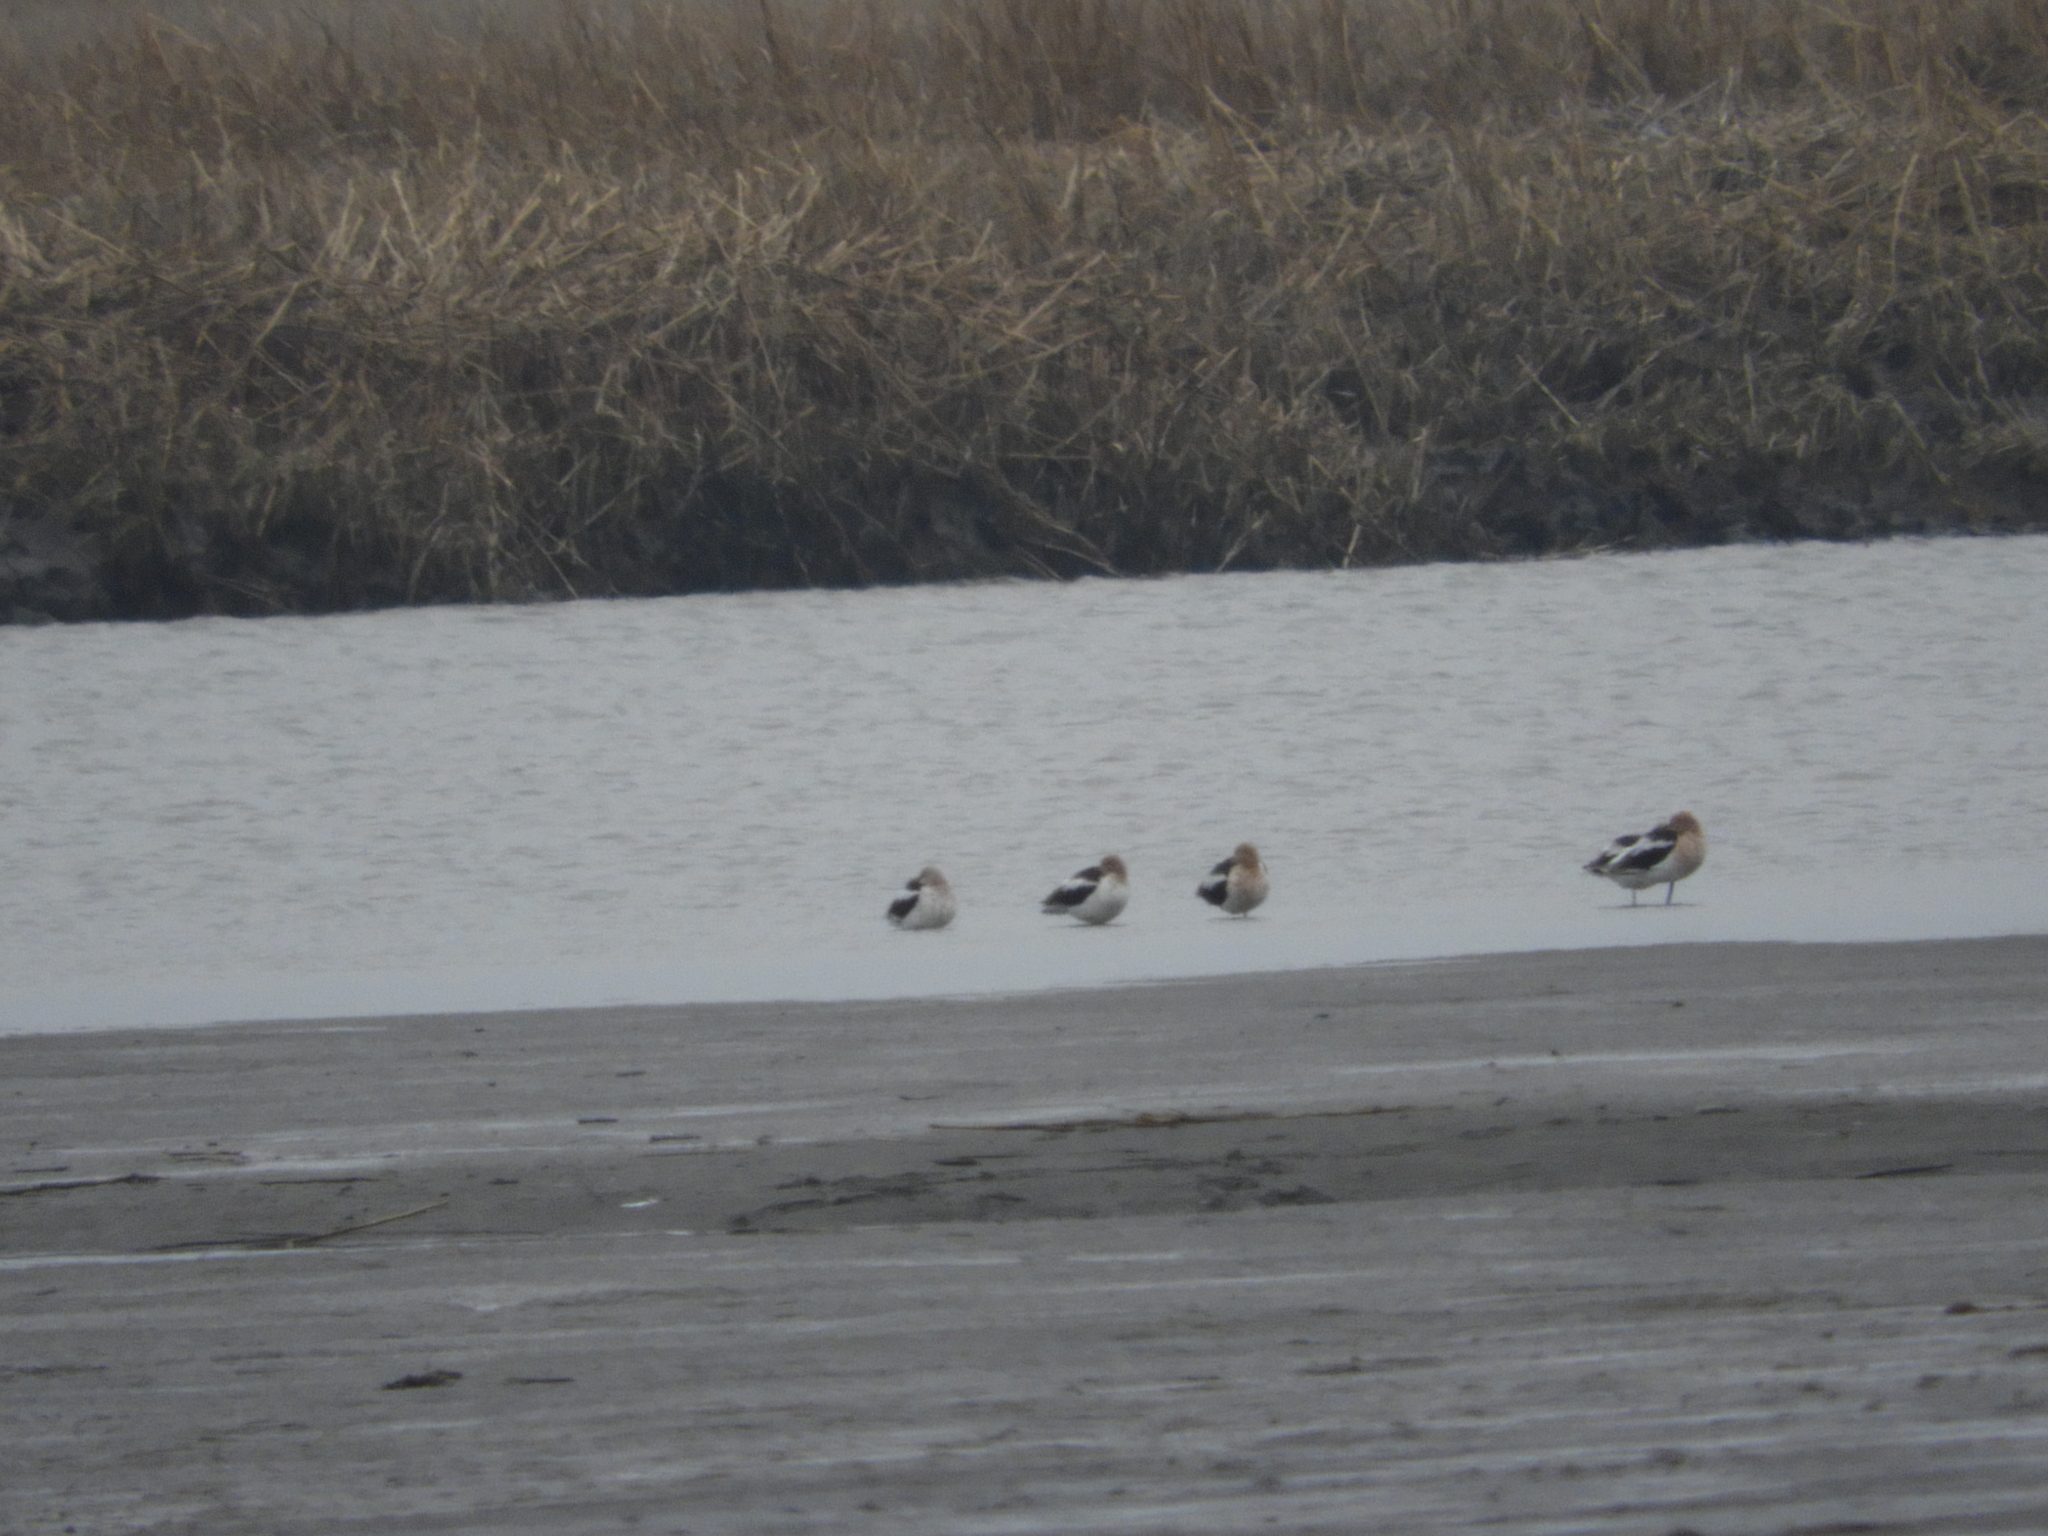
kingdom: Animalia
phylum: Chordata
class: Aves
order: Charadriiformes
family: Recurvirostridae
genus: Recurvirostra
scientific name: Recurvirostra americana
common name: American avocet
